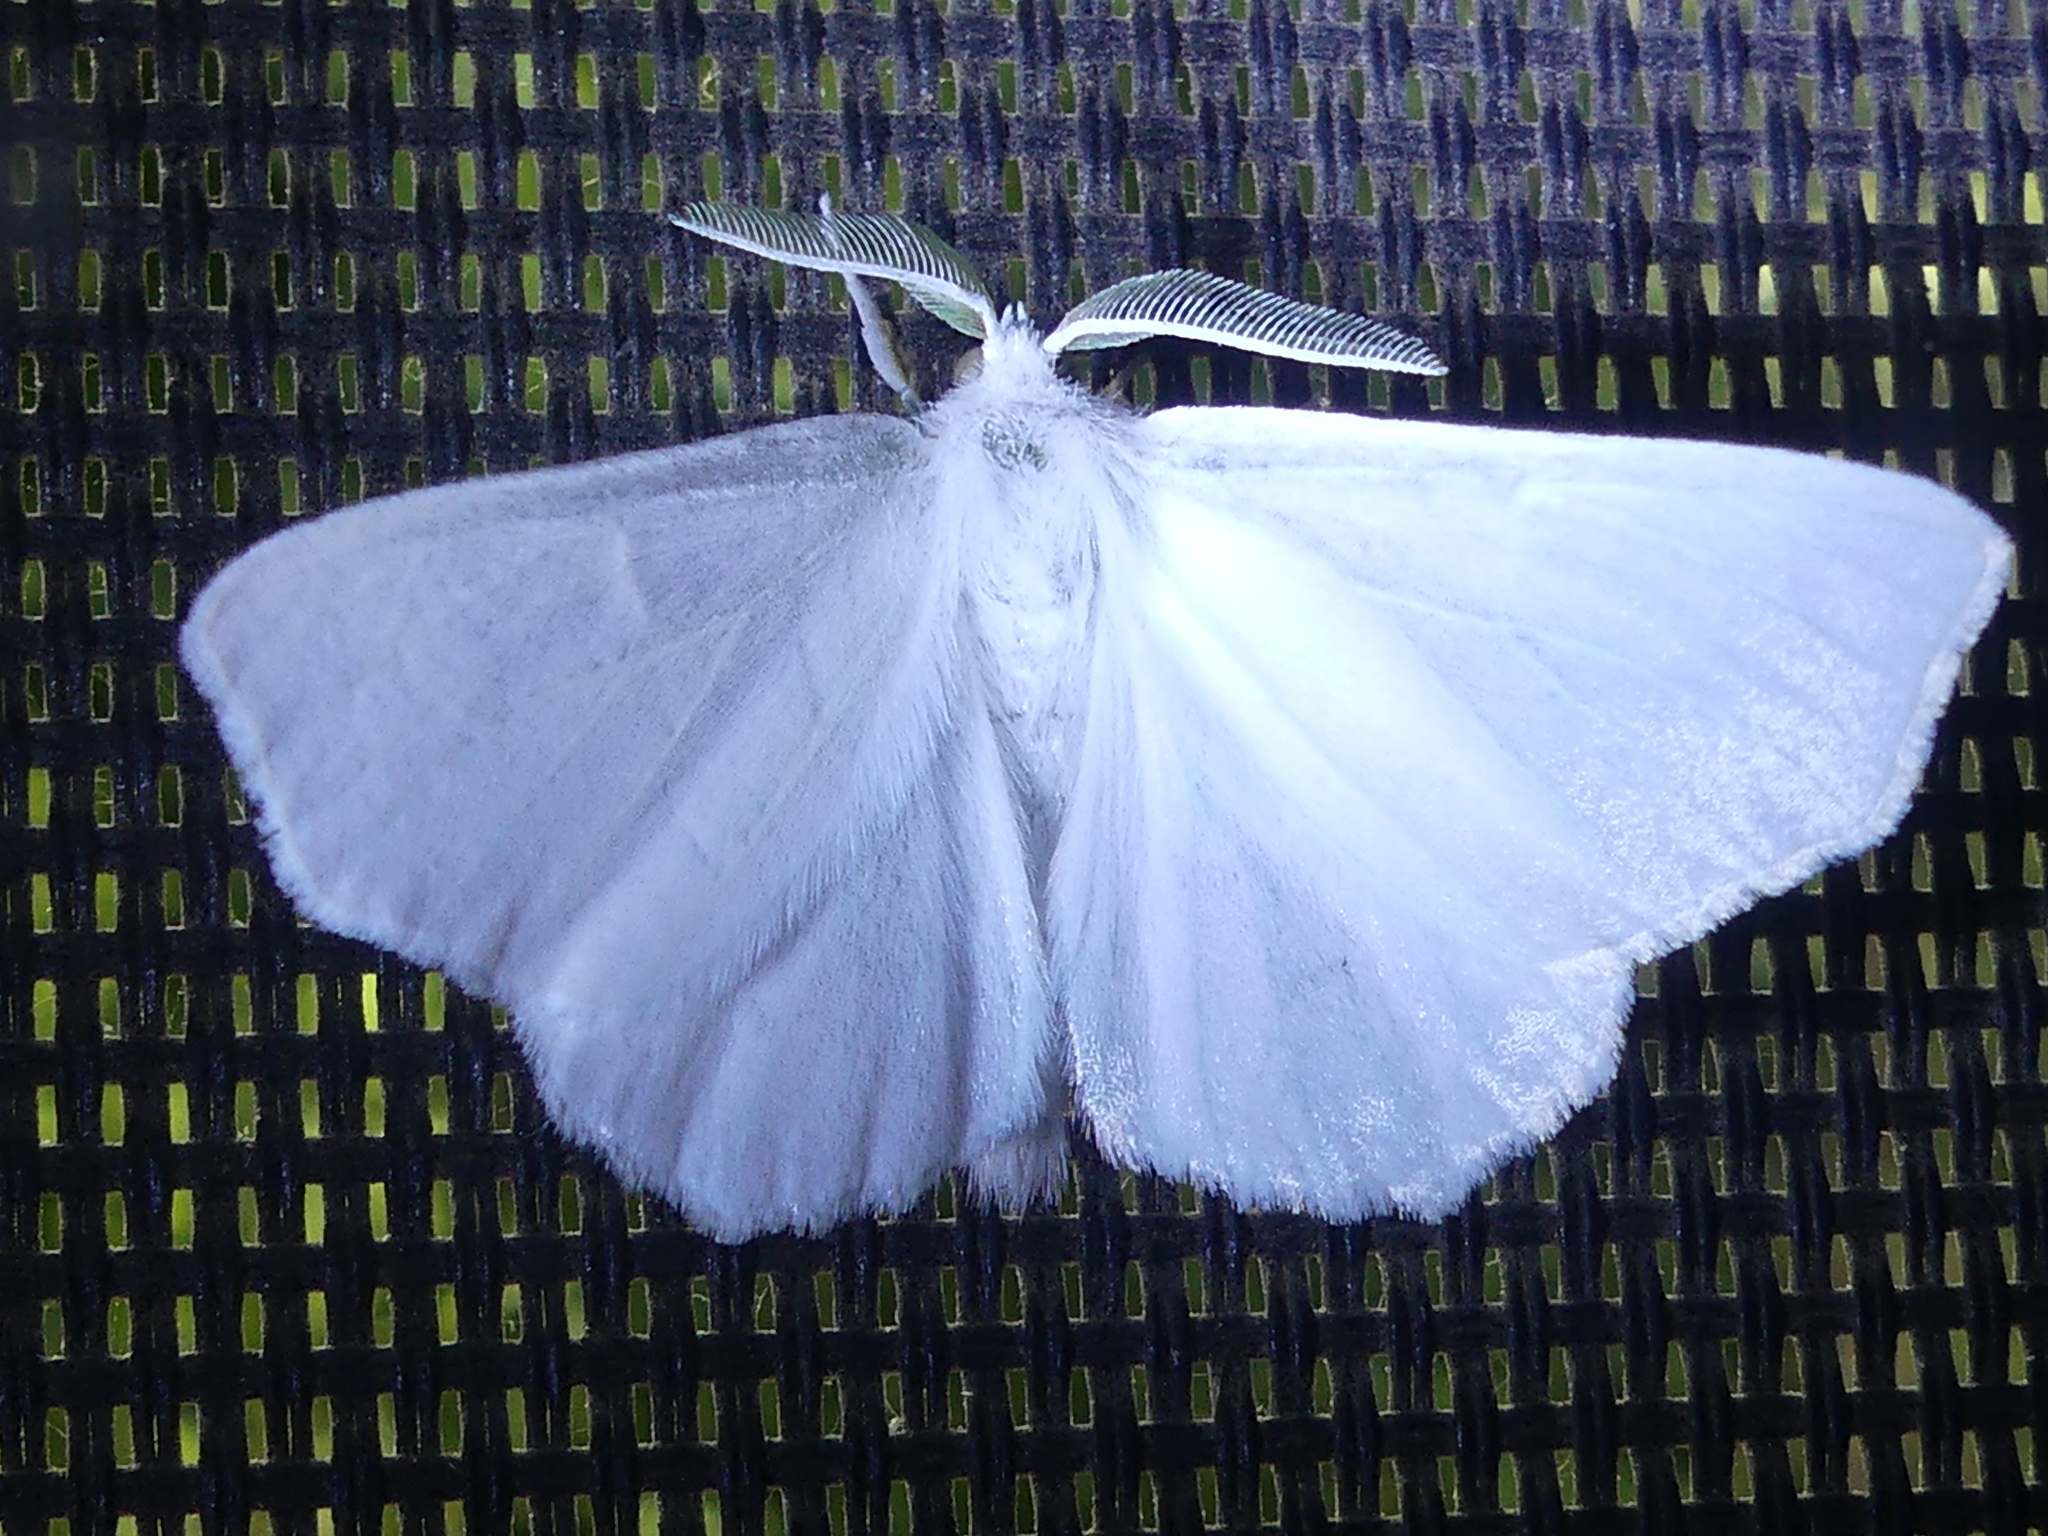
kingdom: Animalia
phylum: Arthropoda
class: Insecta
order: Lepidoptera
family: Geometridae
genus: Ennomos
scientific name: Ennomos subsignaria
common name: Elm spanworm
